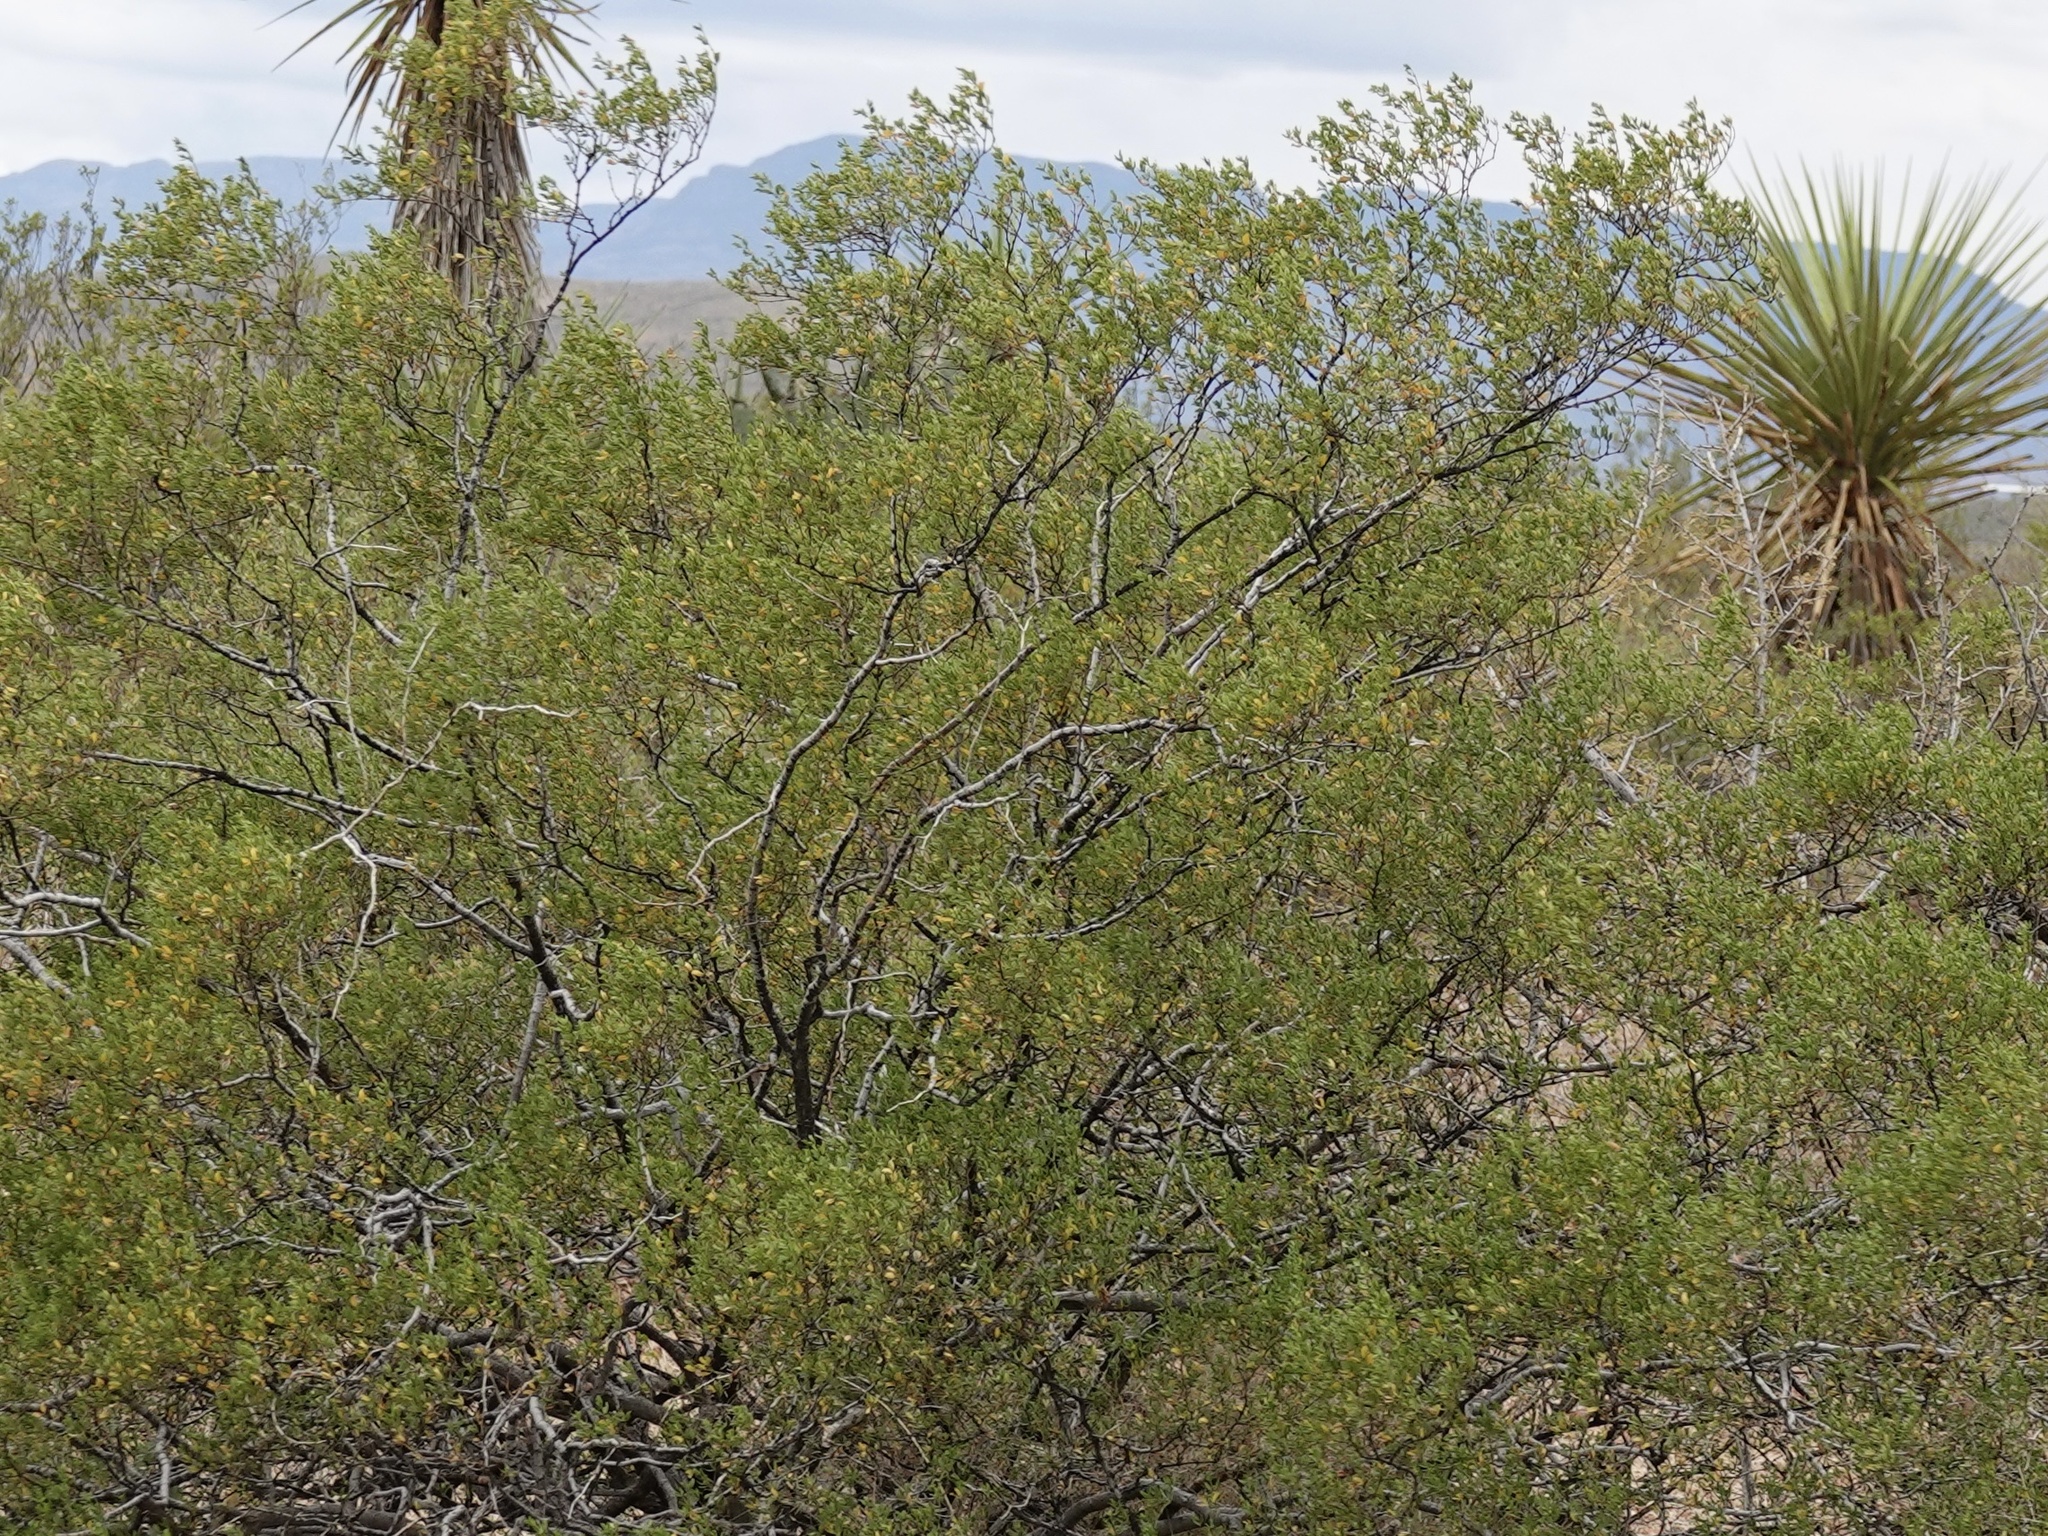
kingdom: Plantae
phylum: Tracheophyta
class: Magnoliopsida
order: Zygophyllales
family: Zygophyllaceae
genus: Larrea
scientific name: Larrea tridentata
